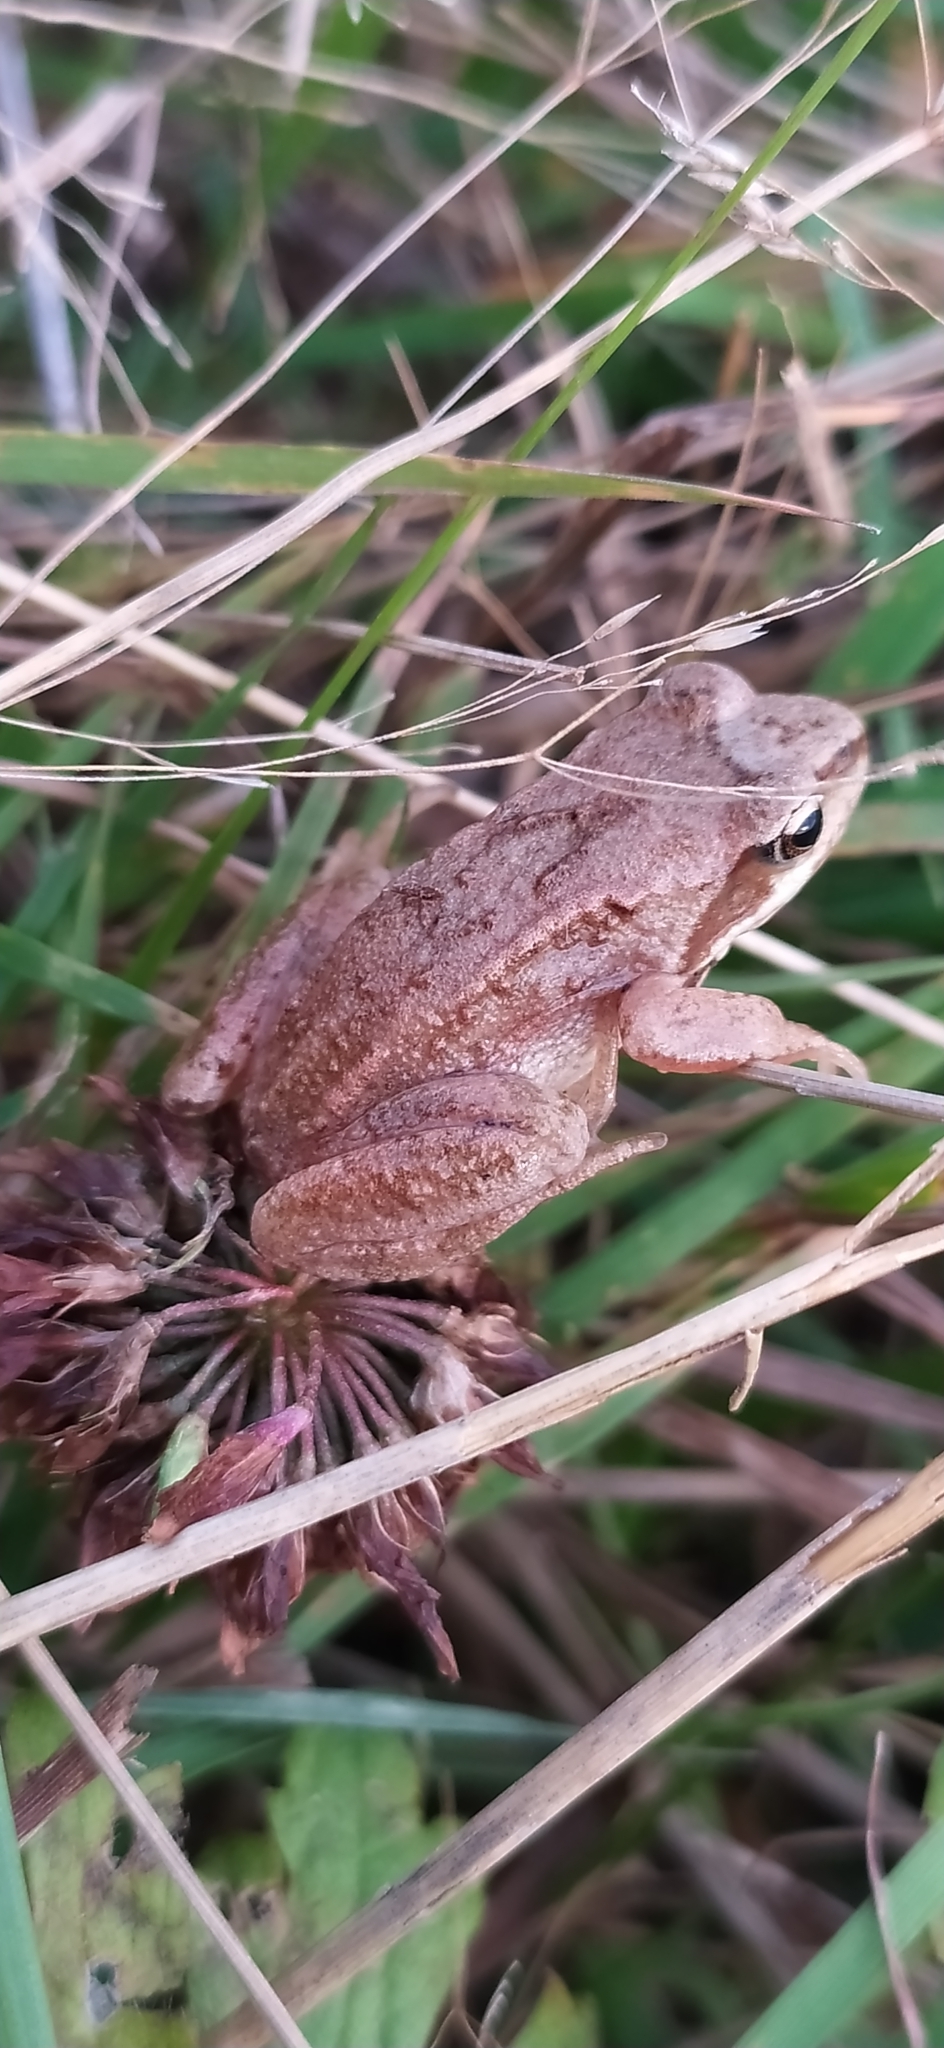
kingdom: Animalia
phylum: Chordata
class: Amphibia
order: Anura
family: Ranidae
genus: Rana
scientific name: Rana temporaria
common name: Common frog
